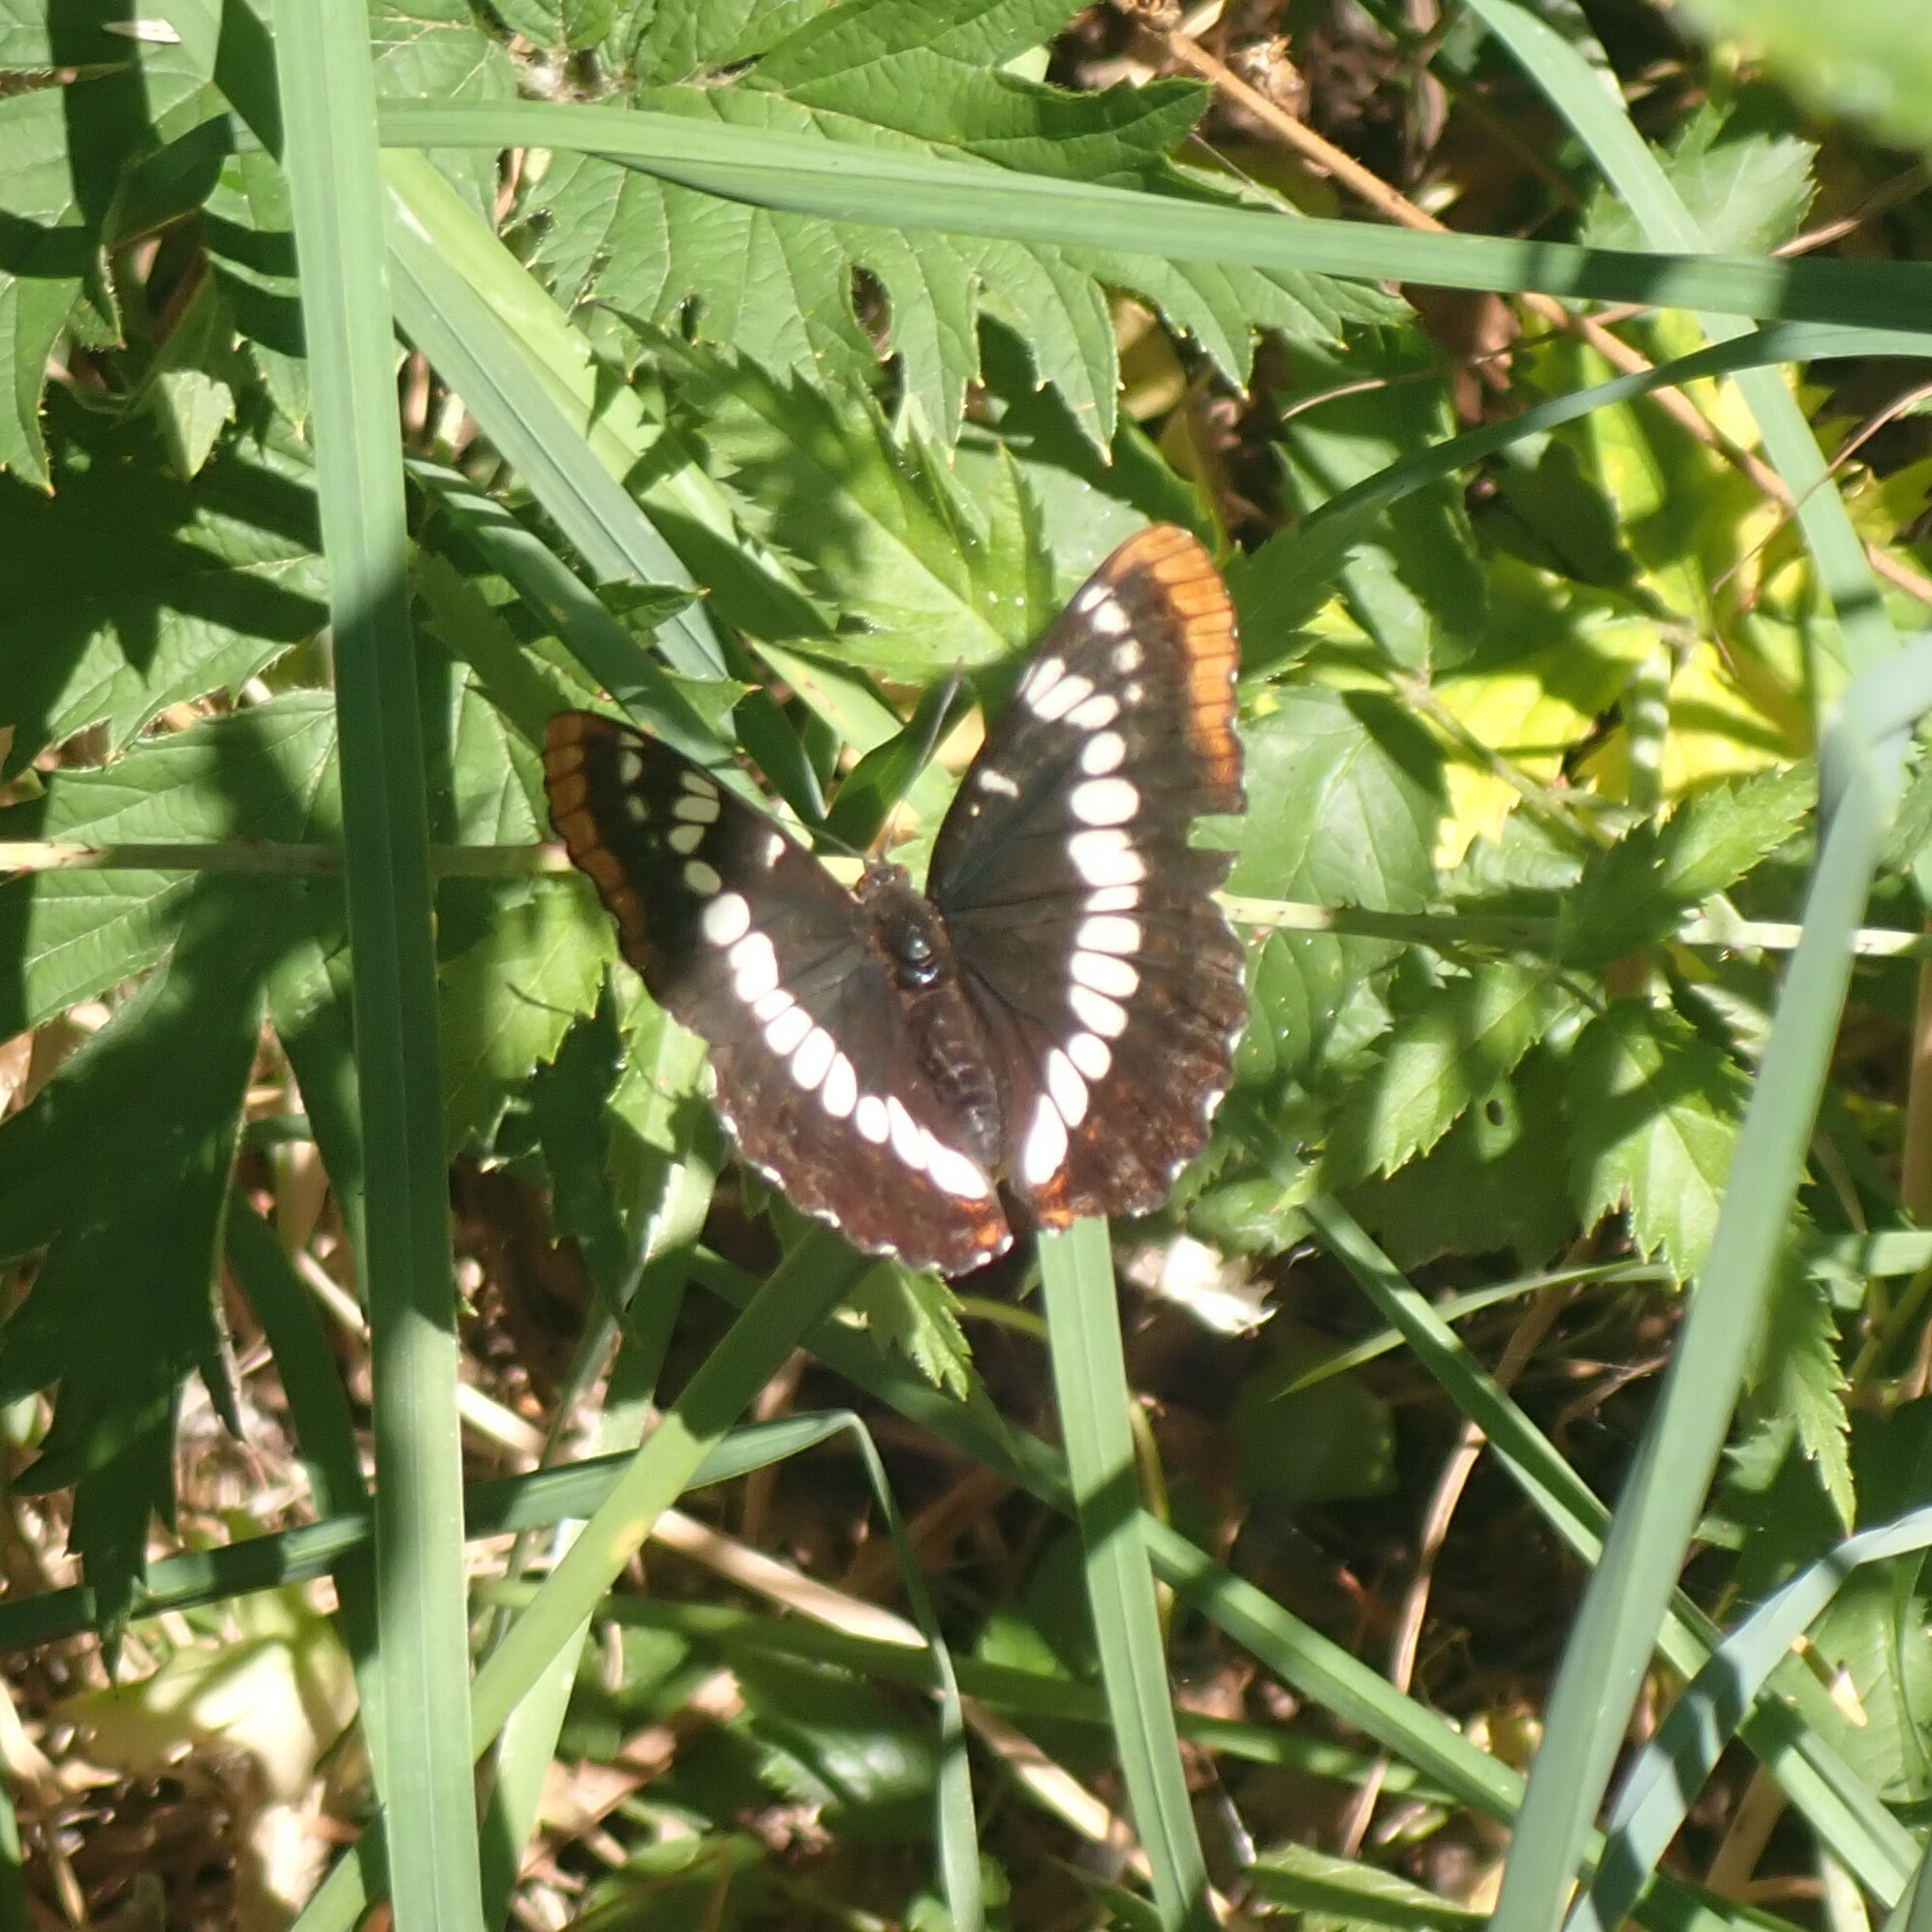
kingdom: Animalia
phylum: Arthropoda
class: Insecta
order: Lepidoptera
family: Nymphalidae
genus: Limenitis
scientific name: Limenitis lorquini
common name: Lorquin's admiral
